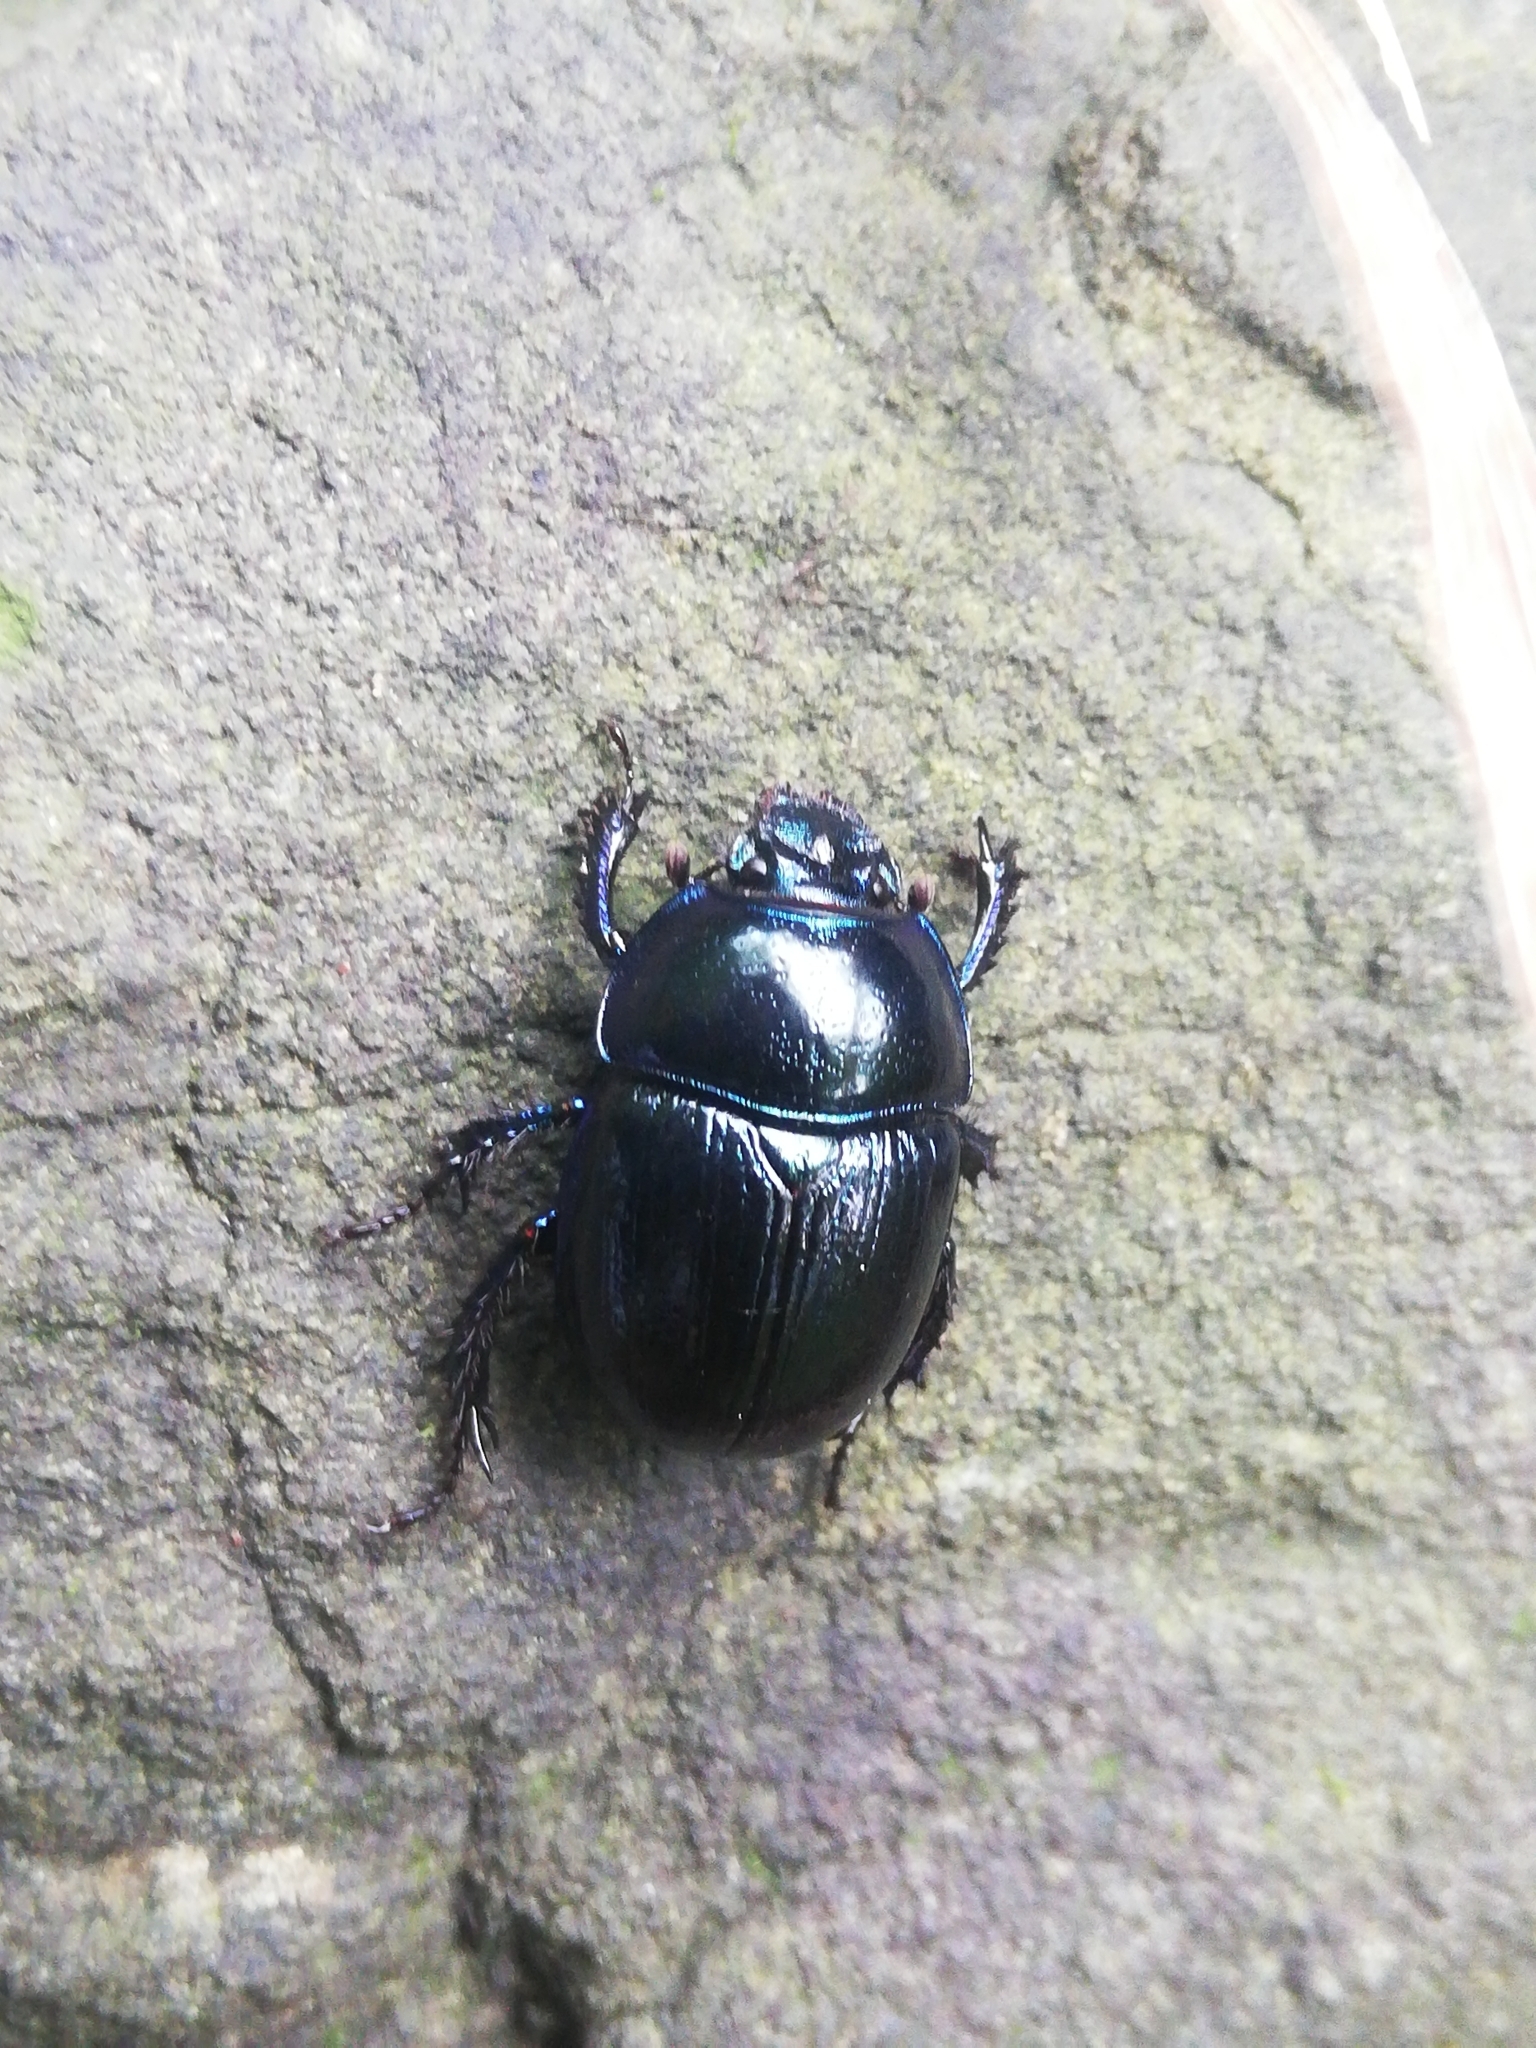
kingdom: Animalia
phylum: Arthropoda
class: Insecta
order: Coleoptera
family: Geotrupidae
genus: Anoplotrupes
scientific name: Anoplotrupes stercorosus
